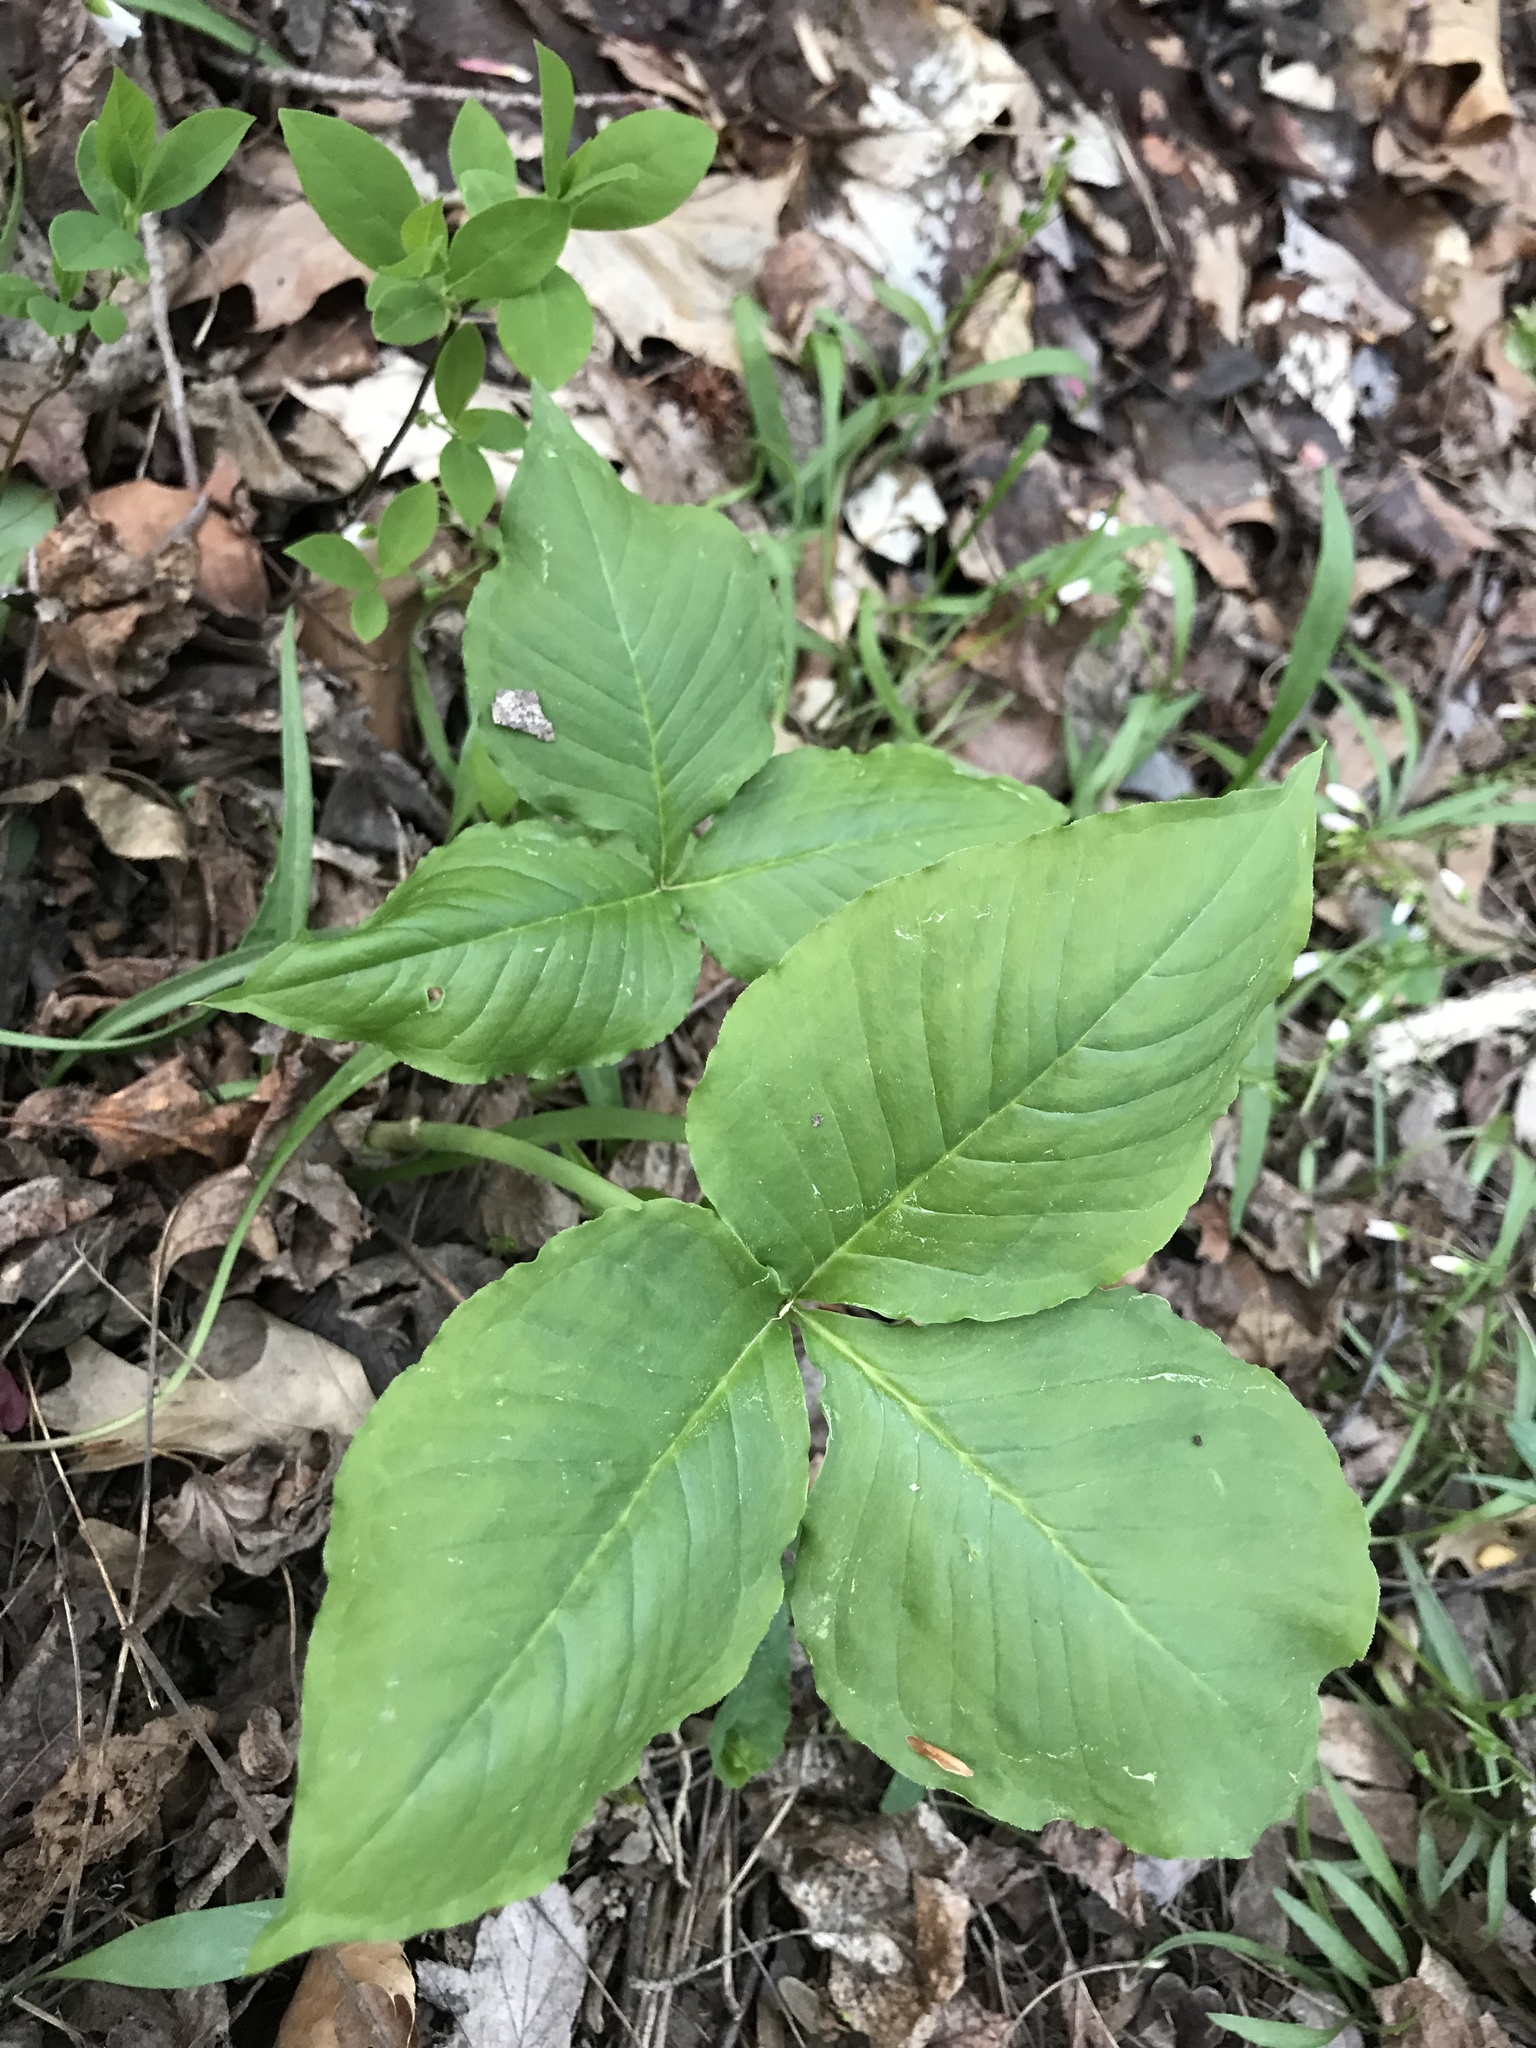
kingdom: Plantae
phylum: Tracheophyta
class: Liliopsida
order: Alismatales
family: Araceae
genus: Arisaema
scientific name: Arisaema triphyllum
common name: Jack-in-the-pulpit
